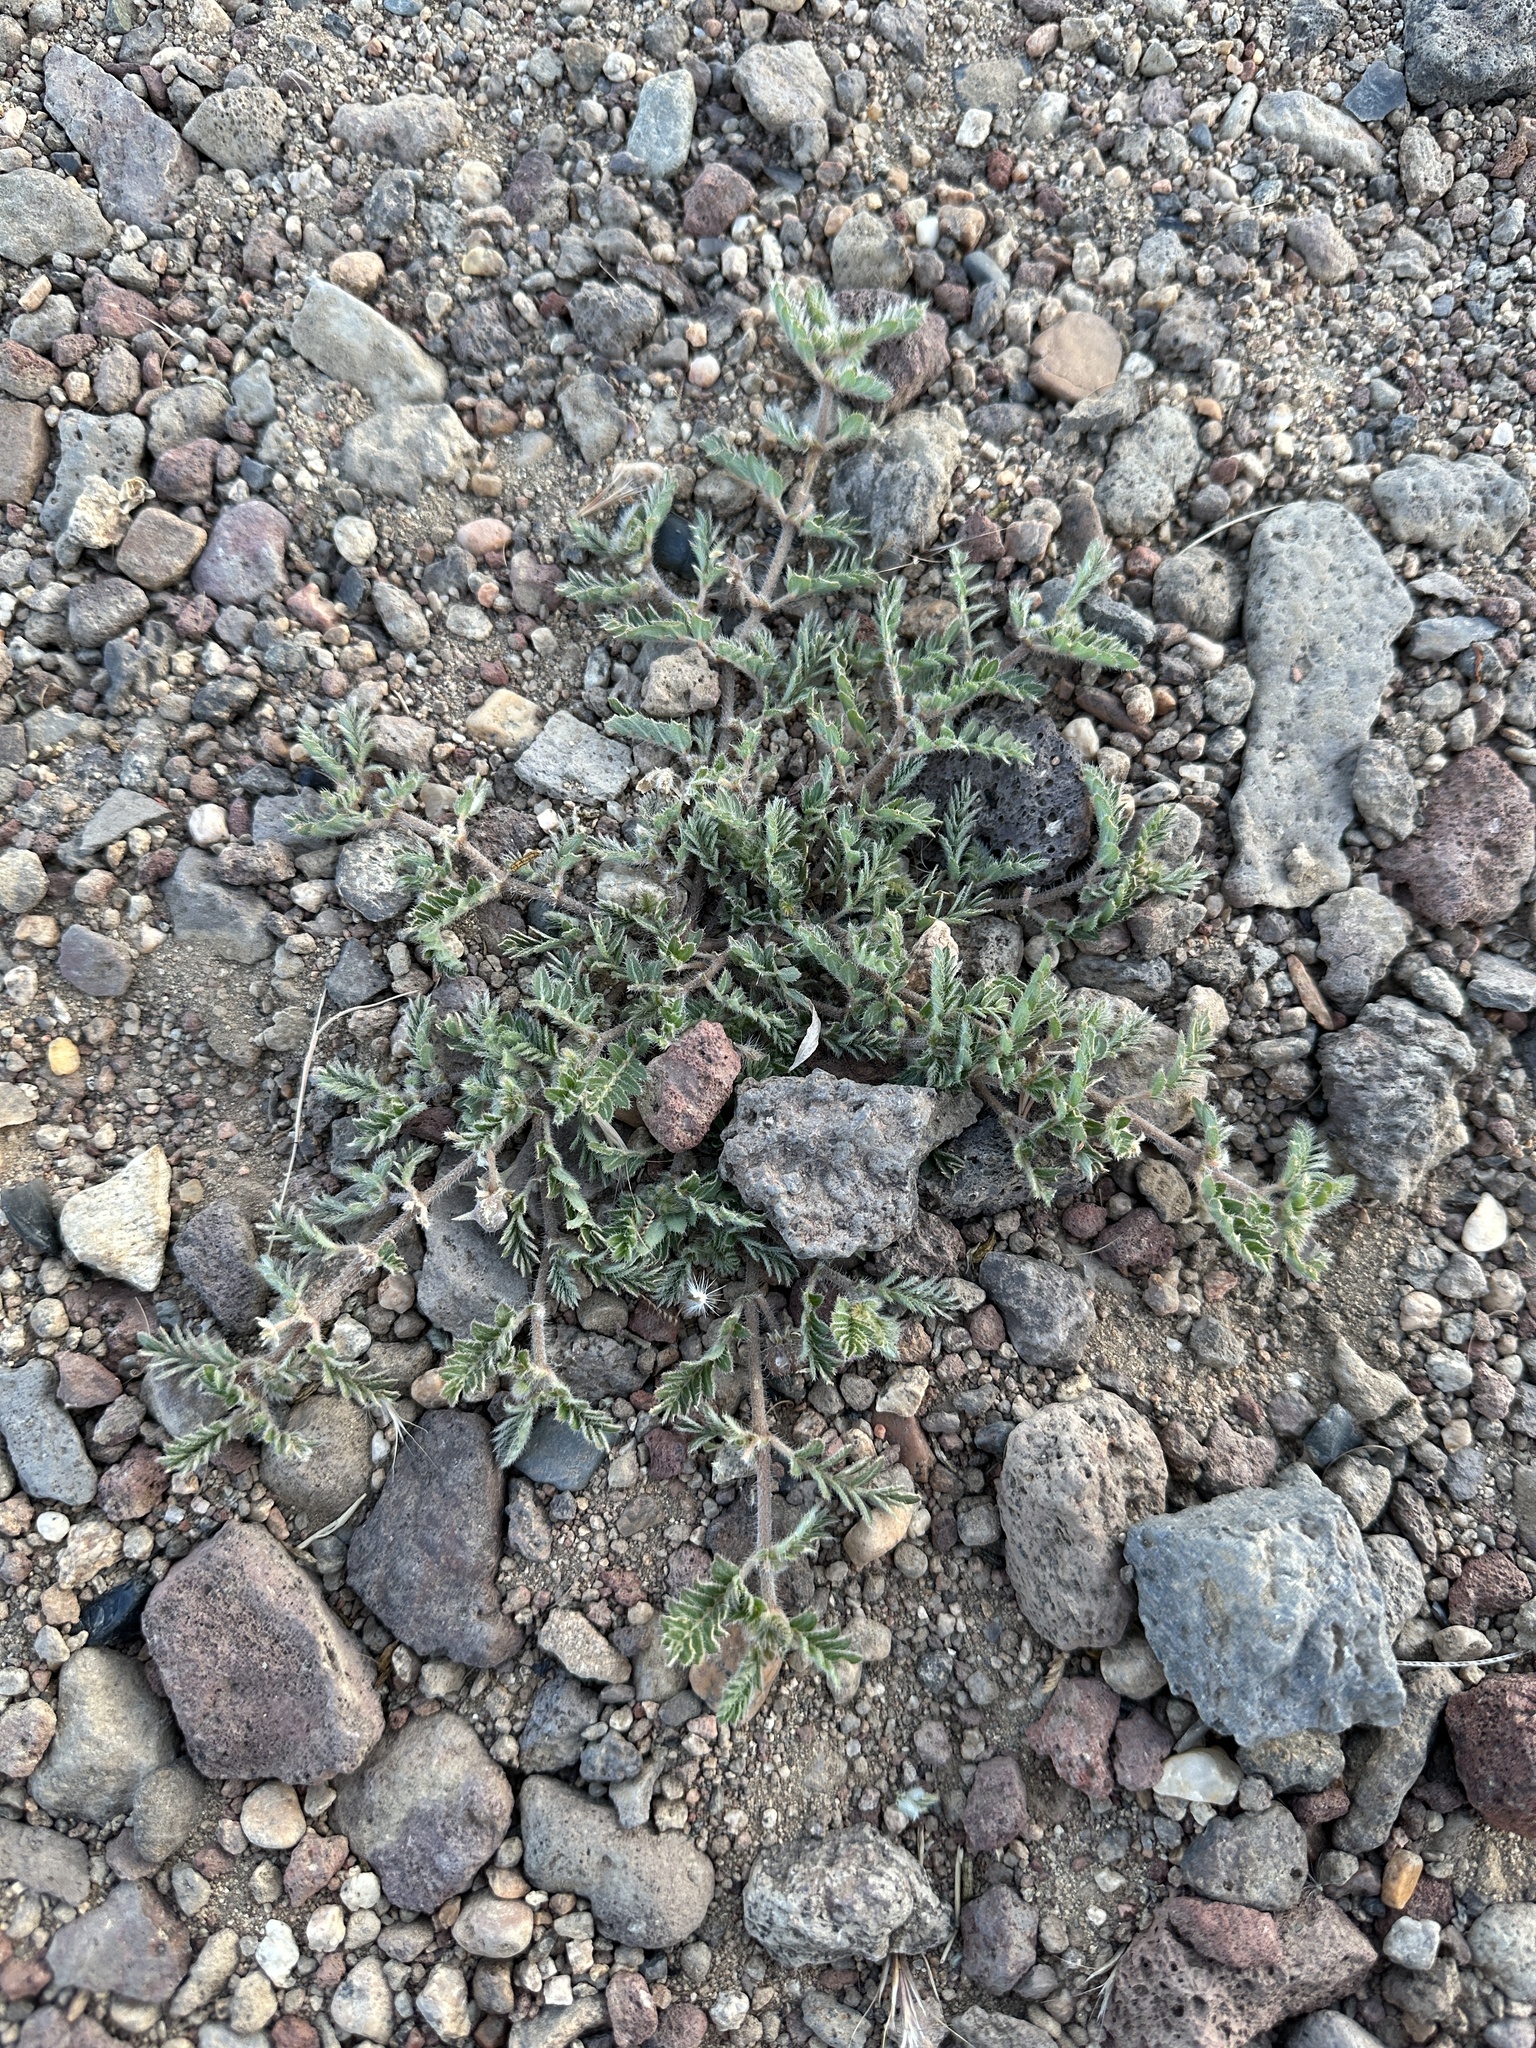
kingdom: Plantae
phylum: Tracheophyta
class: Magnoliopsida
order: Zygophyllales
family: Zygophyllaceae
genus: Tribulus
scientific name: Tribulus terrestris
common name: Puncturevine
